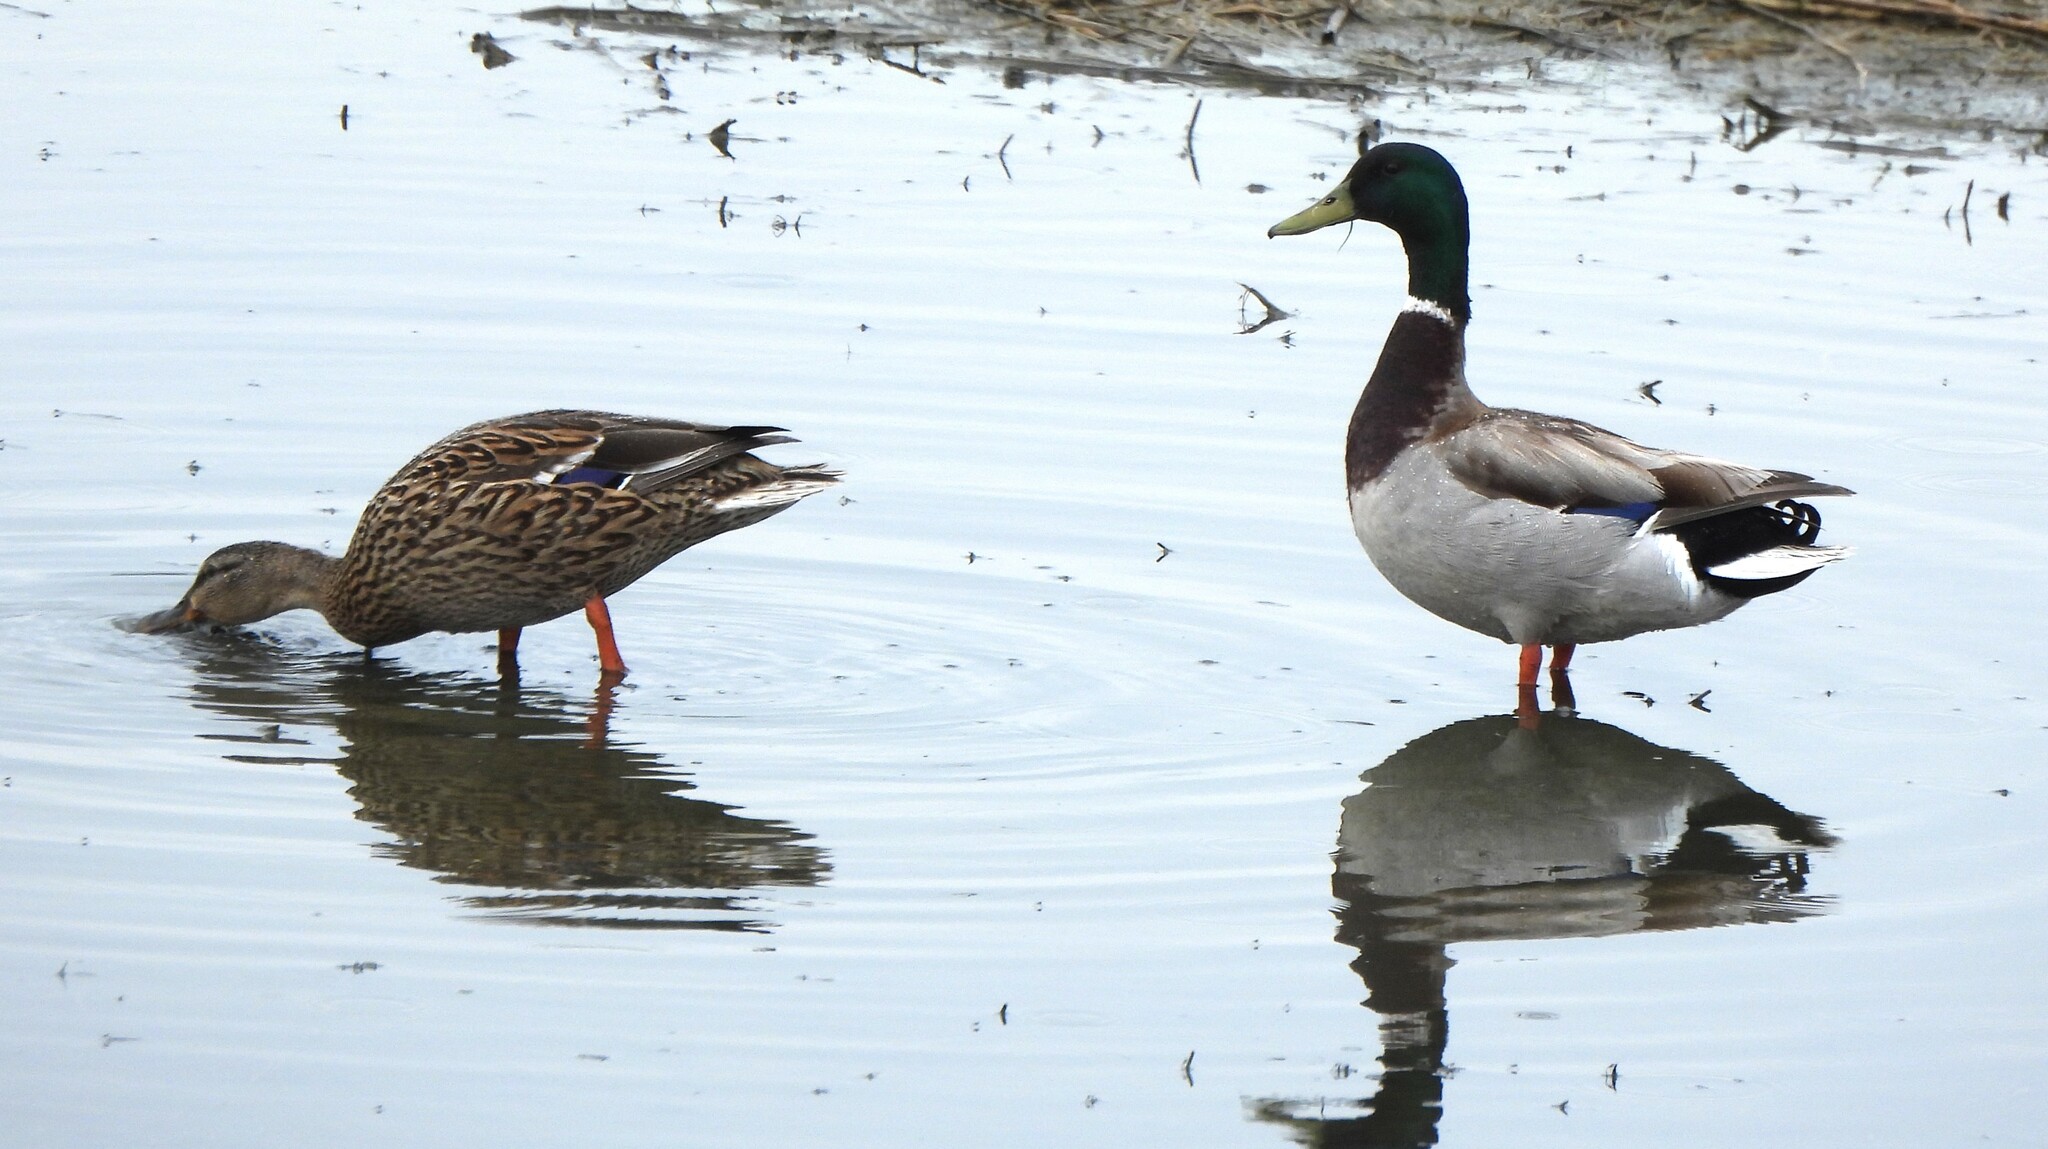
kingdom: Animalia
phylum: Chordata
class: Aves
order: Anseriformes
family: Anatidae
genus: Anas
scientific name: Anas platyrhynchos
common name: Mallard
